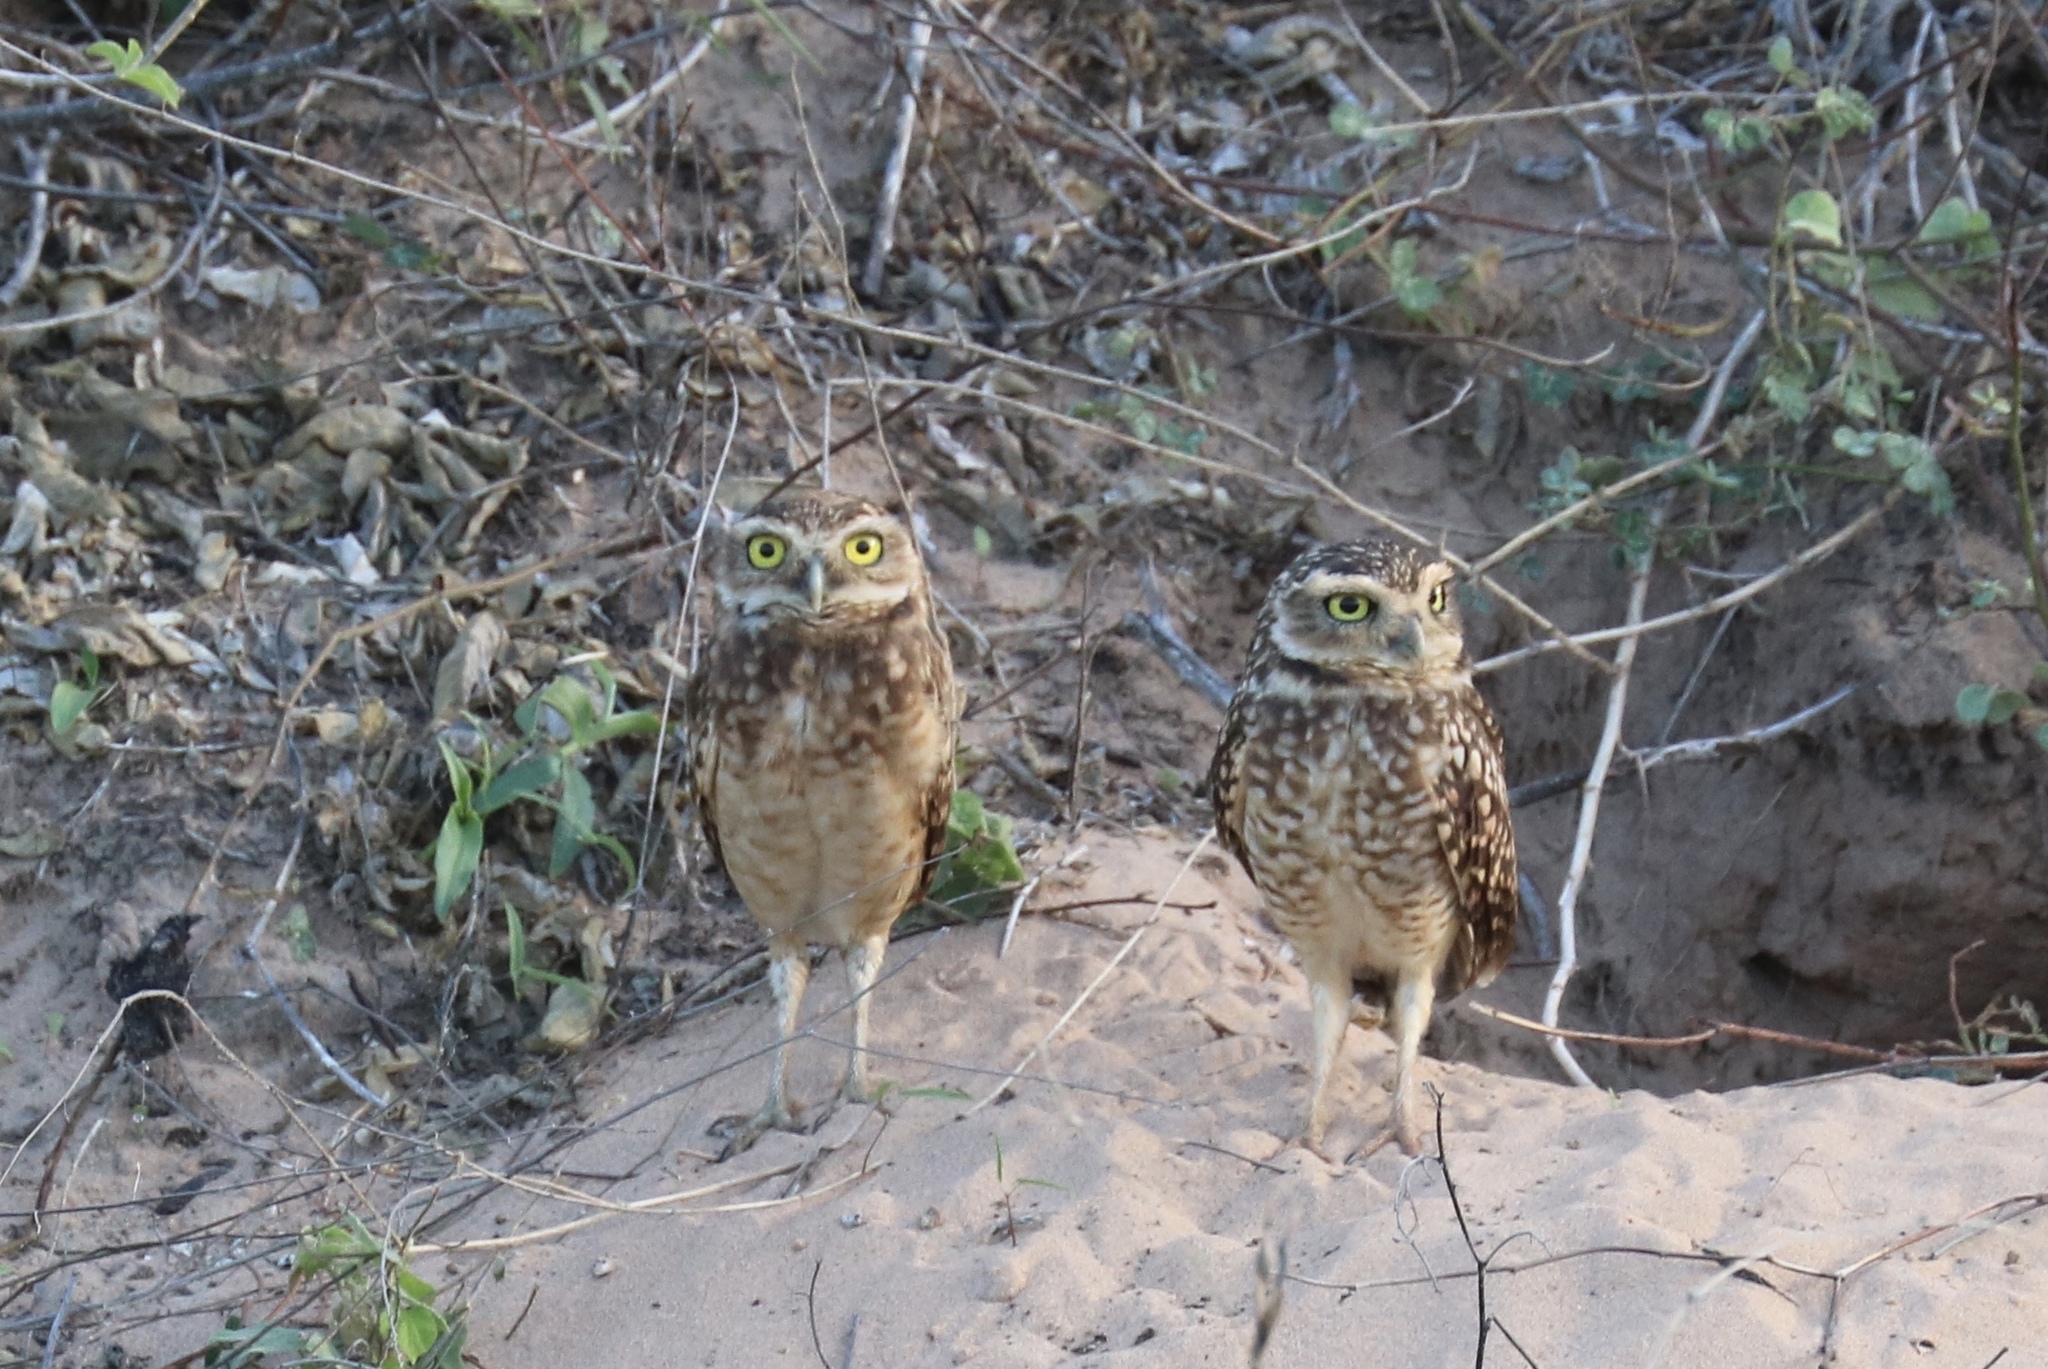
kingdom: Animalia
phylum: Chordata
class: Aves
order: Strigiformes
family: Strigidae
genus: Athene
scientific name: Athene cunicularia
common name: Burrowing owl
